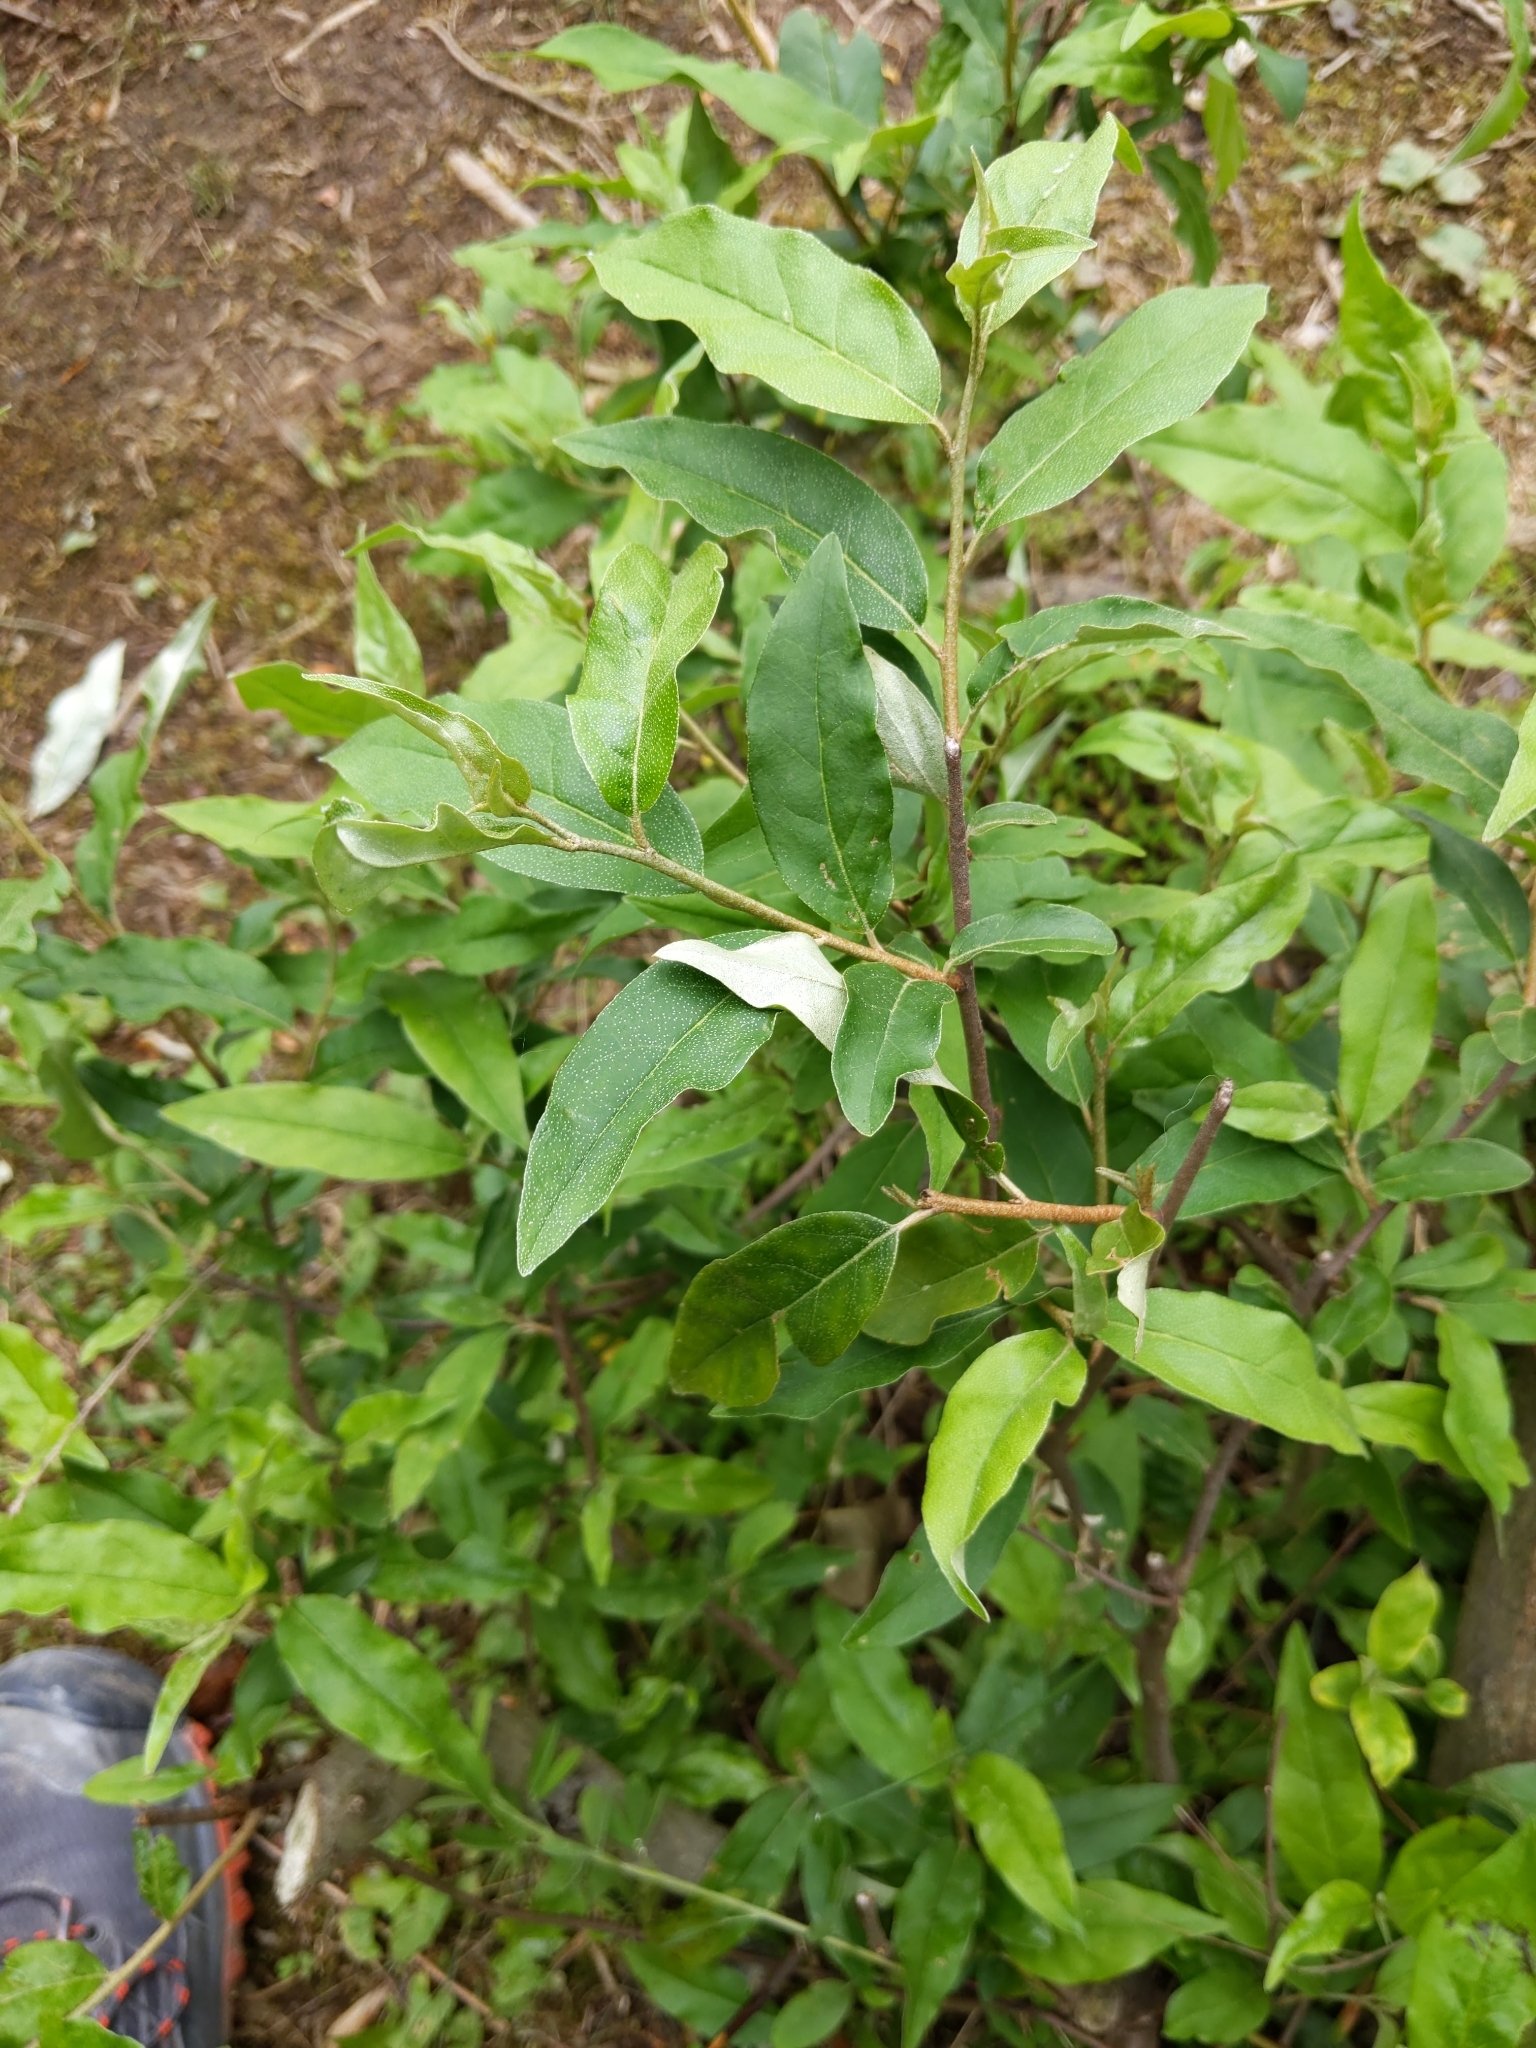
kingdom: Plantae
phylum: Tracheophyta
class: Magnoliopsida
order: Rosales
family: Elaeagnaceae
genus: Elaeagnus
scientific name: Elaeagnus umbellata
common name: Autumn olive
